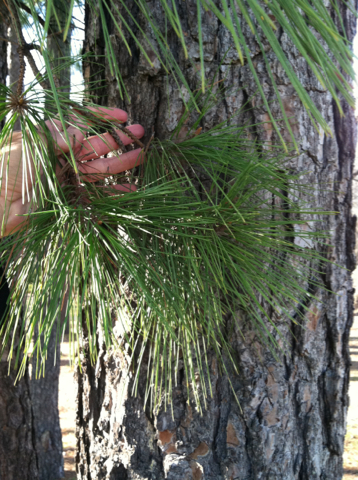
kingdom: Plantae
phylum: Tracheophyta
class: Pinopsida
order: Pinales
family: Pinaceae
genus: Pinus
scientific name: Pinus taeda
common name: Loblolly pine
